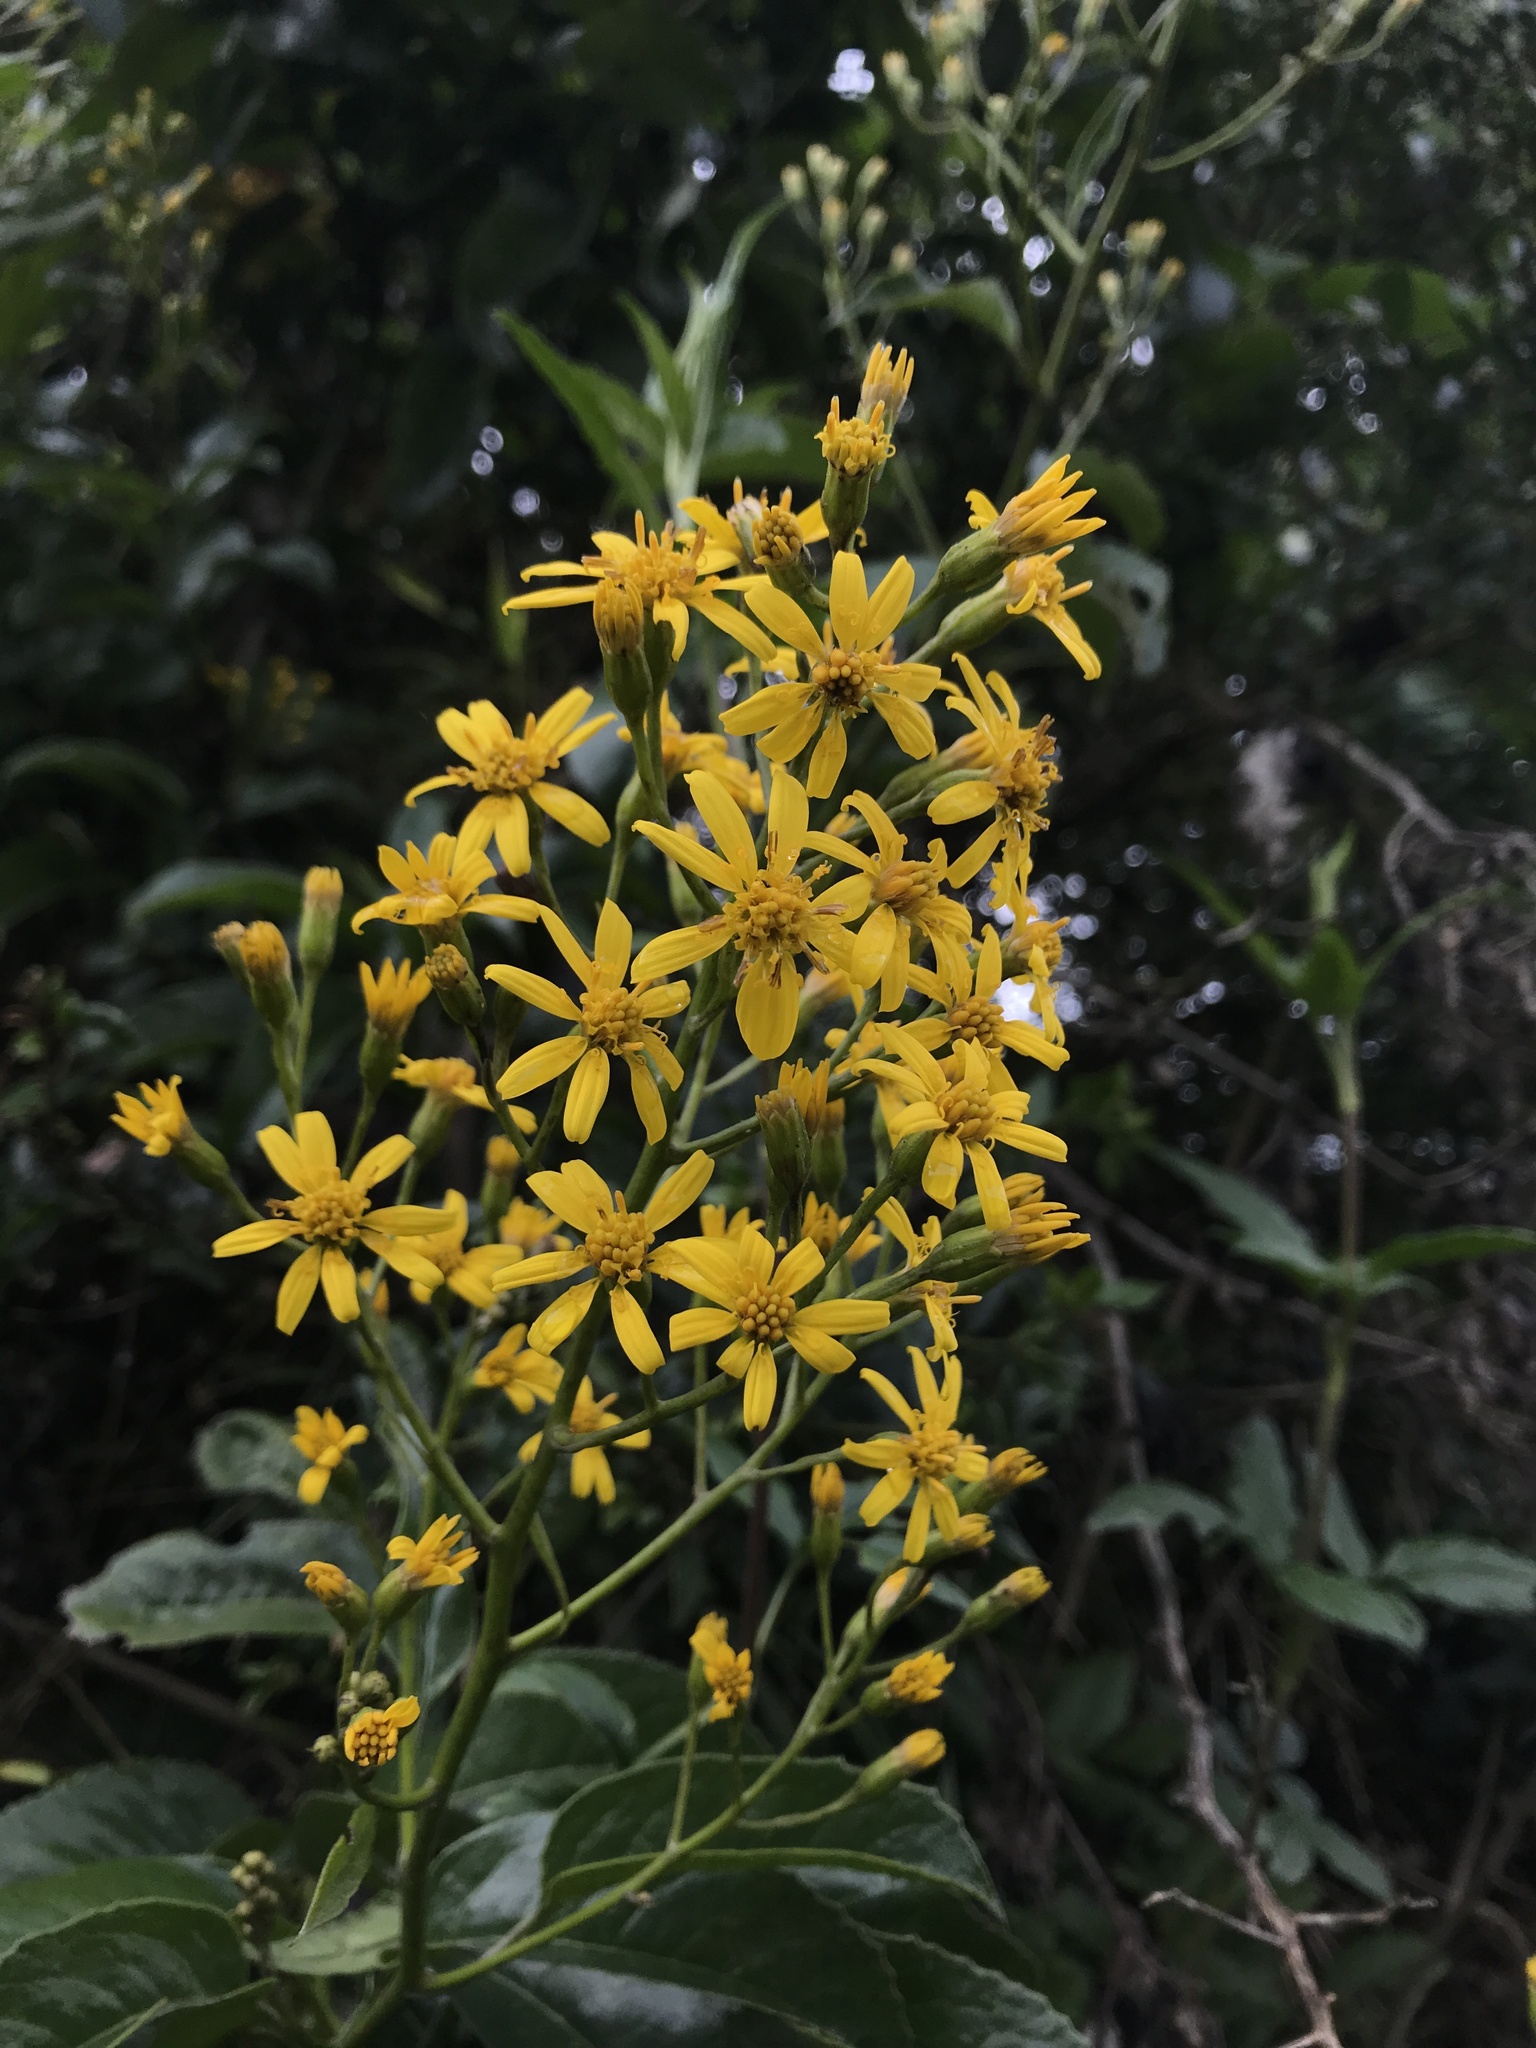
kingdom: Plantae
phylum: Tracheophyta
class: Magnoliopsida
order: Asterales
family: Asteraceae
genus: Dendrophorbium
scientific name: Dendrophorbium americanum
